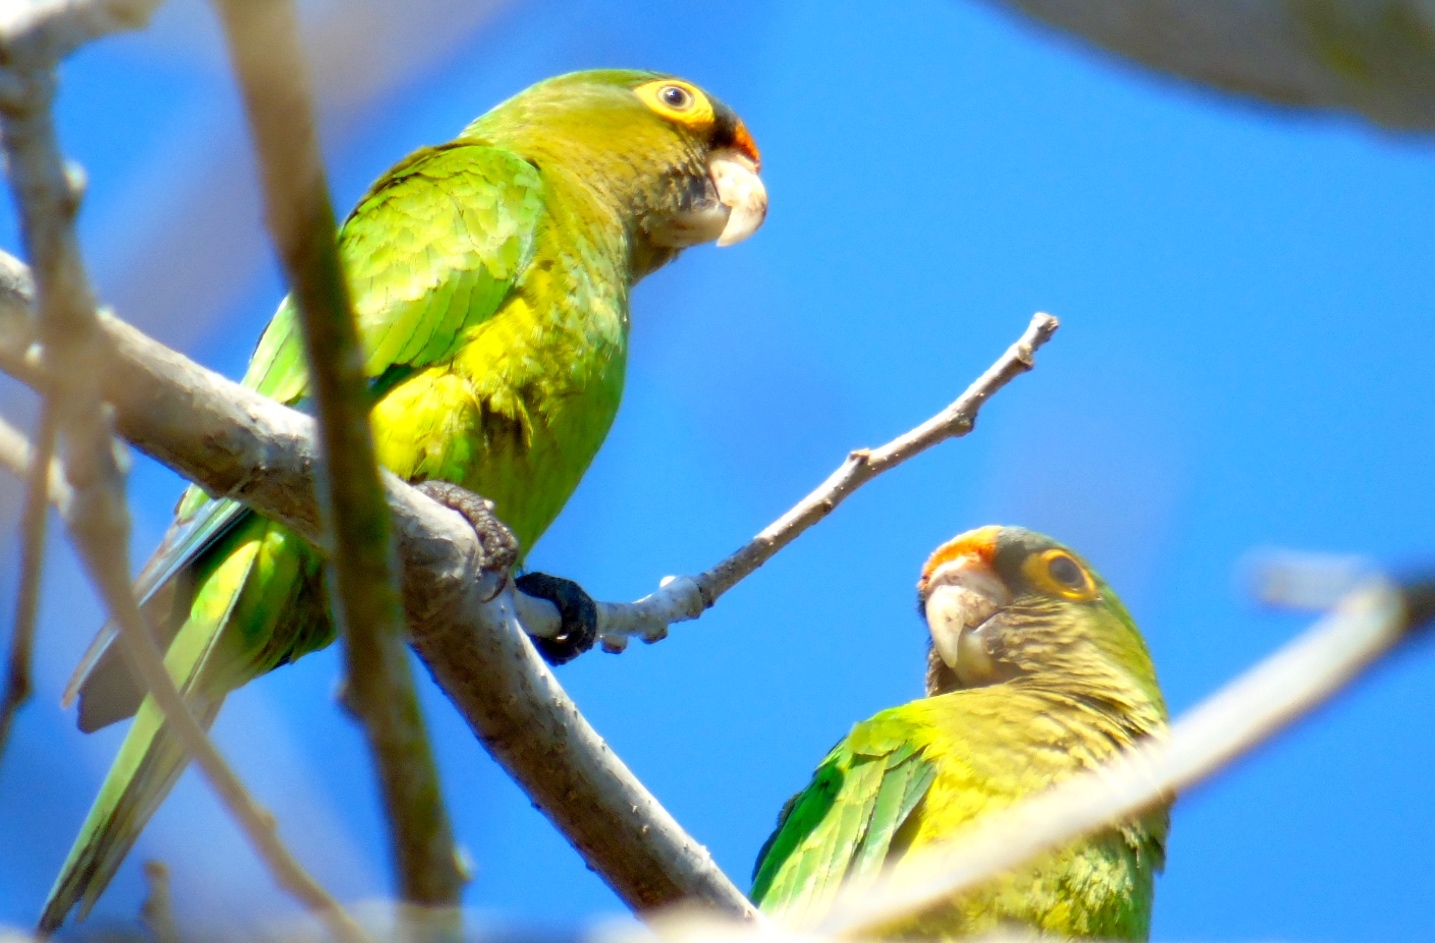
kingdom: Animalia
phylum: Chordata
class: Aves
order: Psittaciformes
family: Psittacidae
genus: Aratinga
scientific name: Aratinga canicularis
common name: Orange-fronted parakeet
